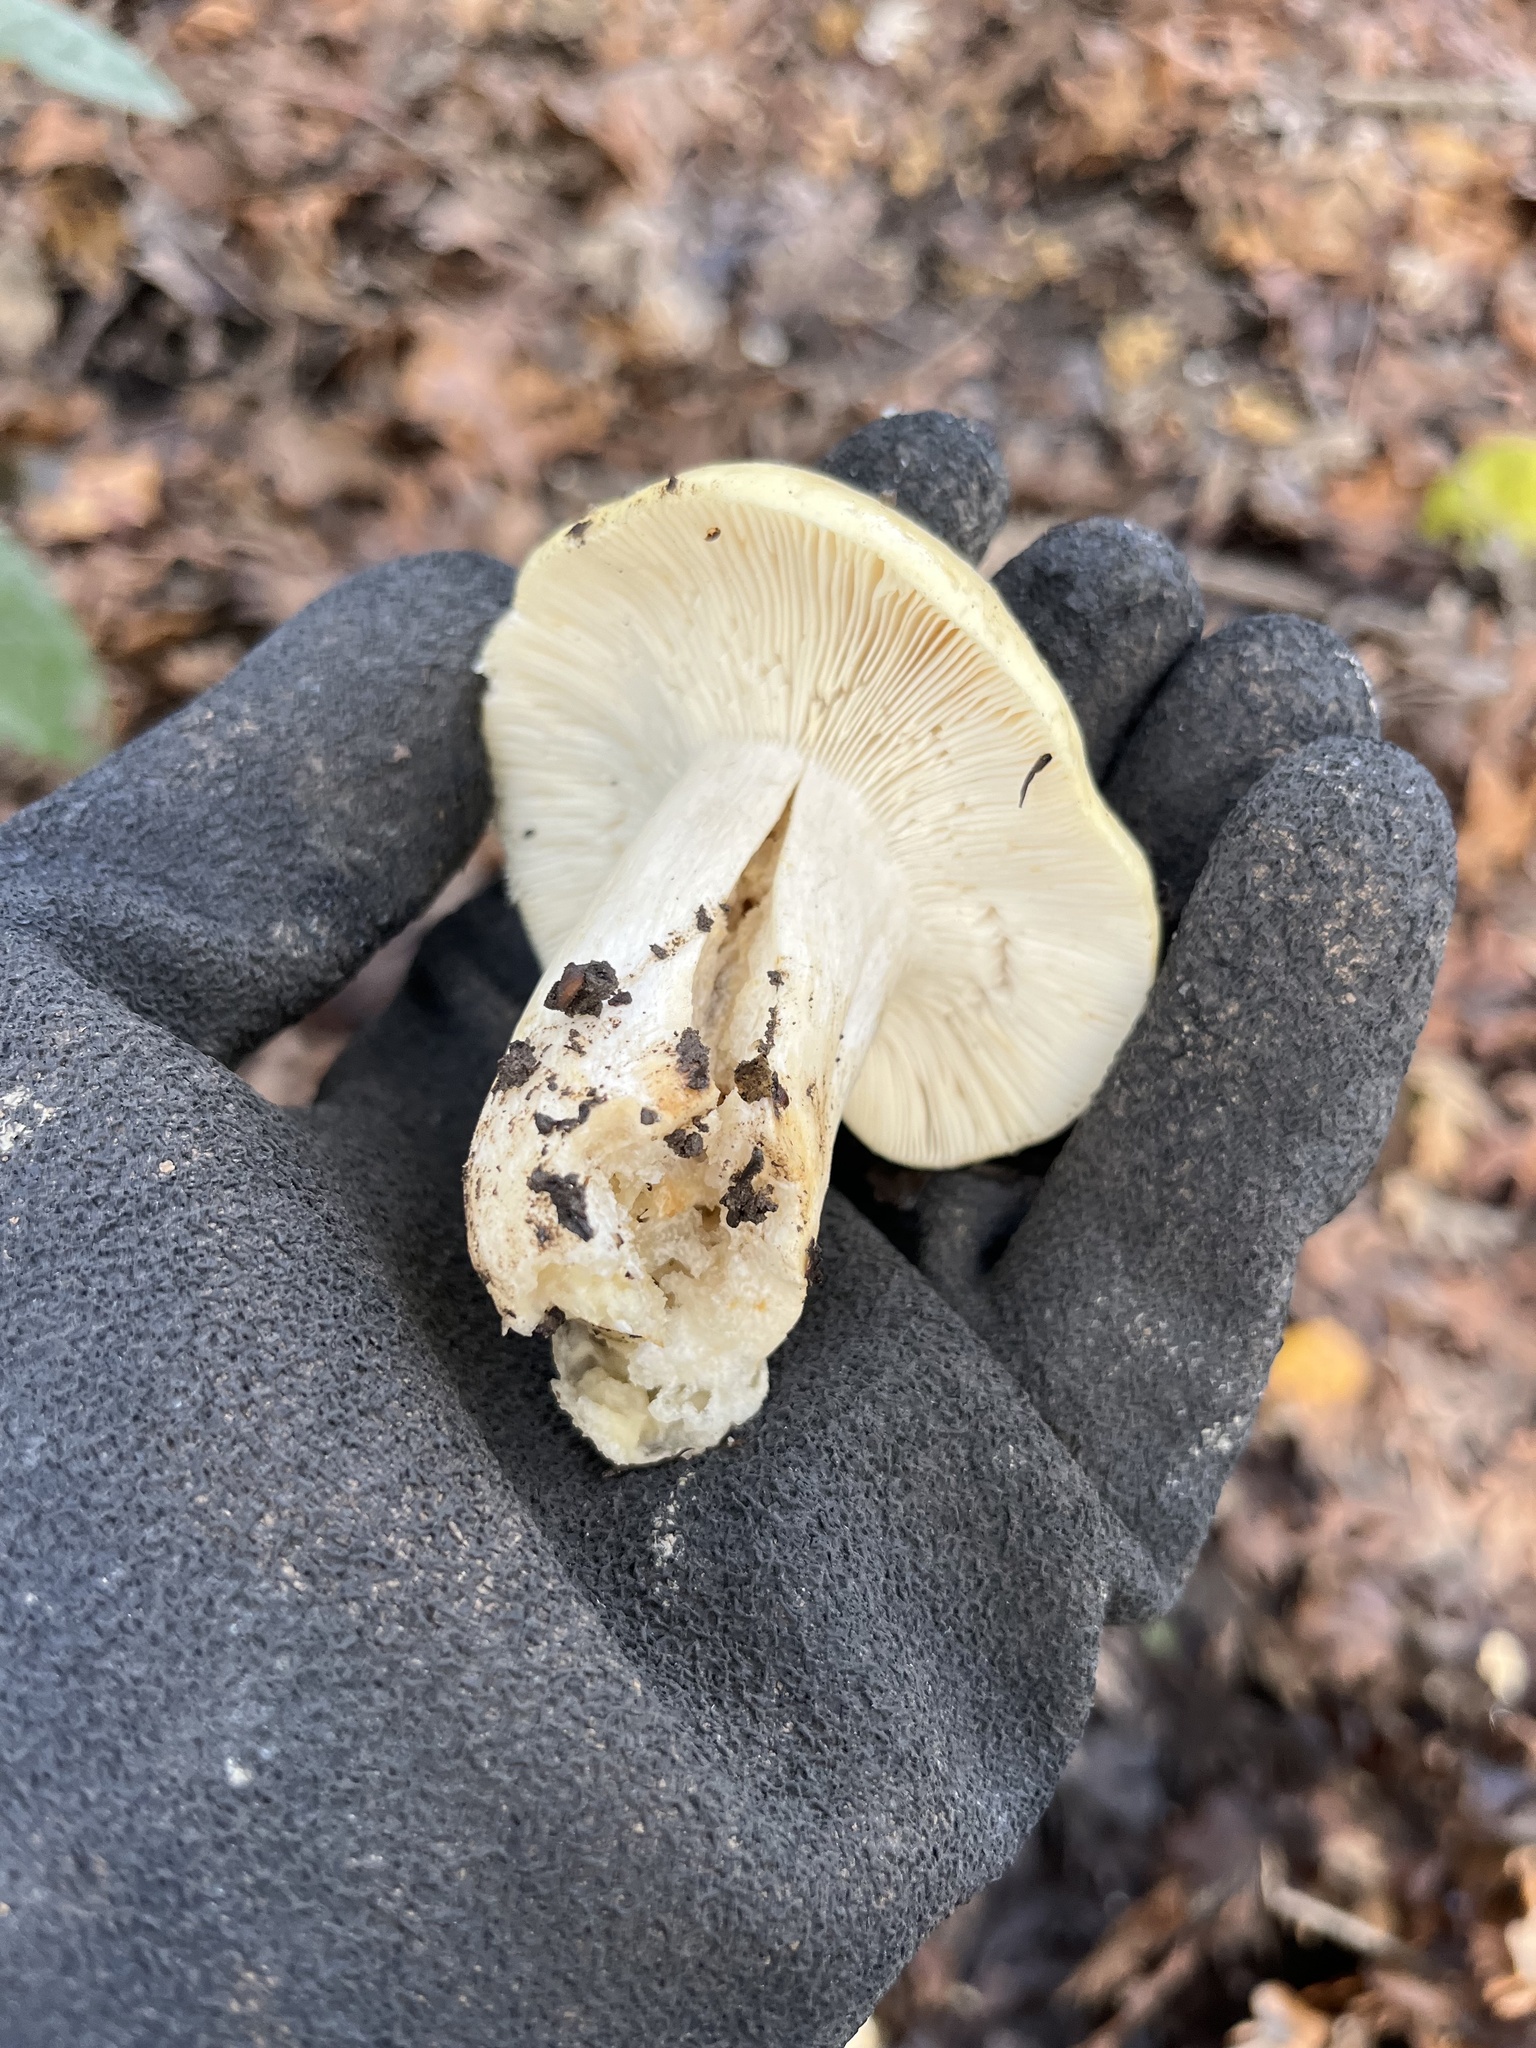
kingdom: Fungi
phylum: Basidiomycota
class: Agaricomycetes
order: Russulales
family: Russulaceae
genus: Lactarius
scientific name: Lactarius alnicola
